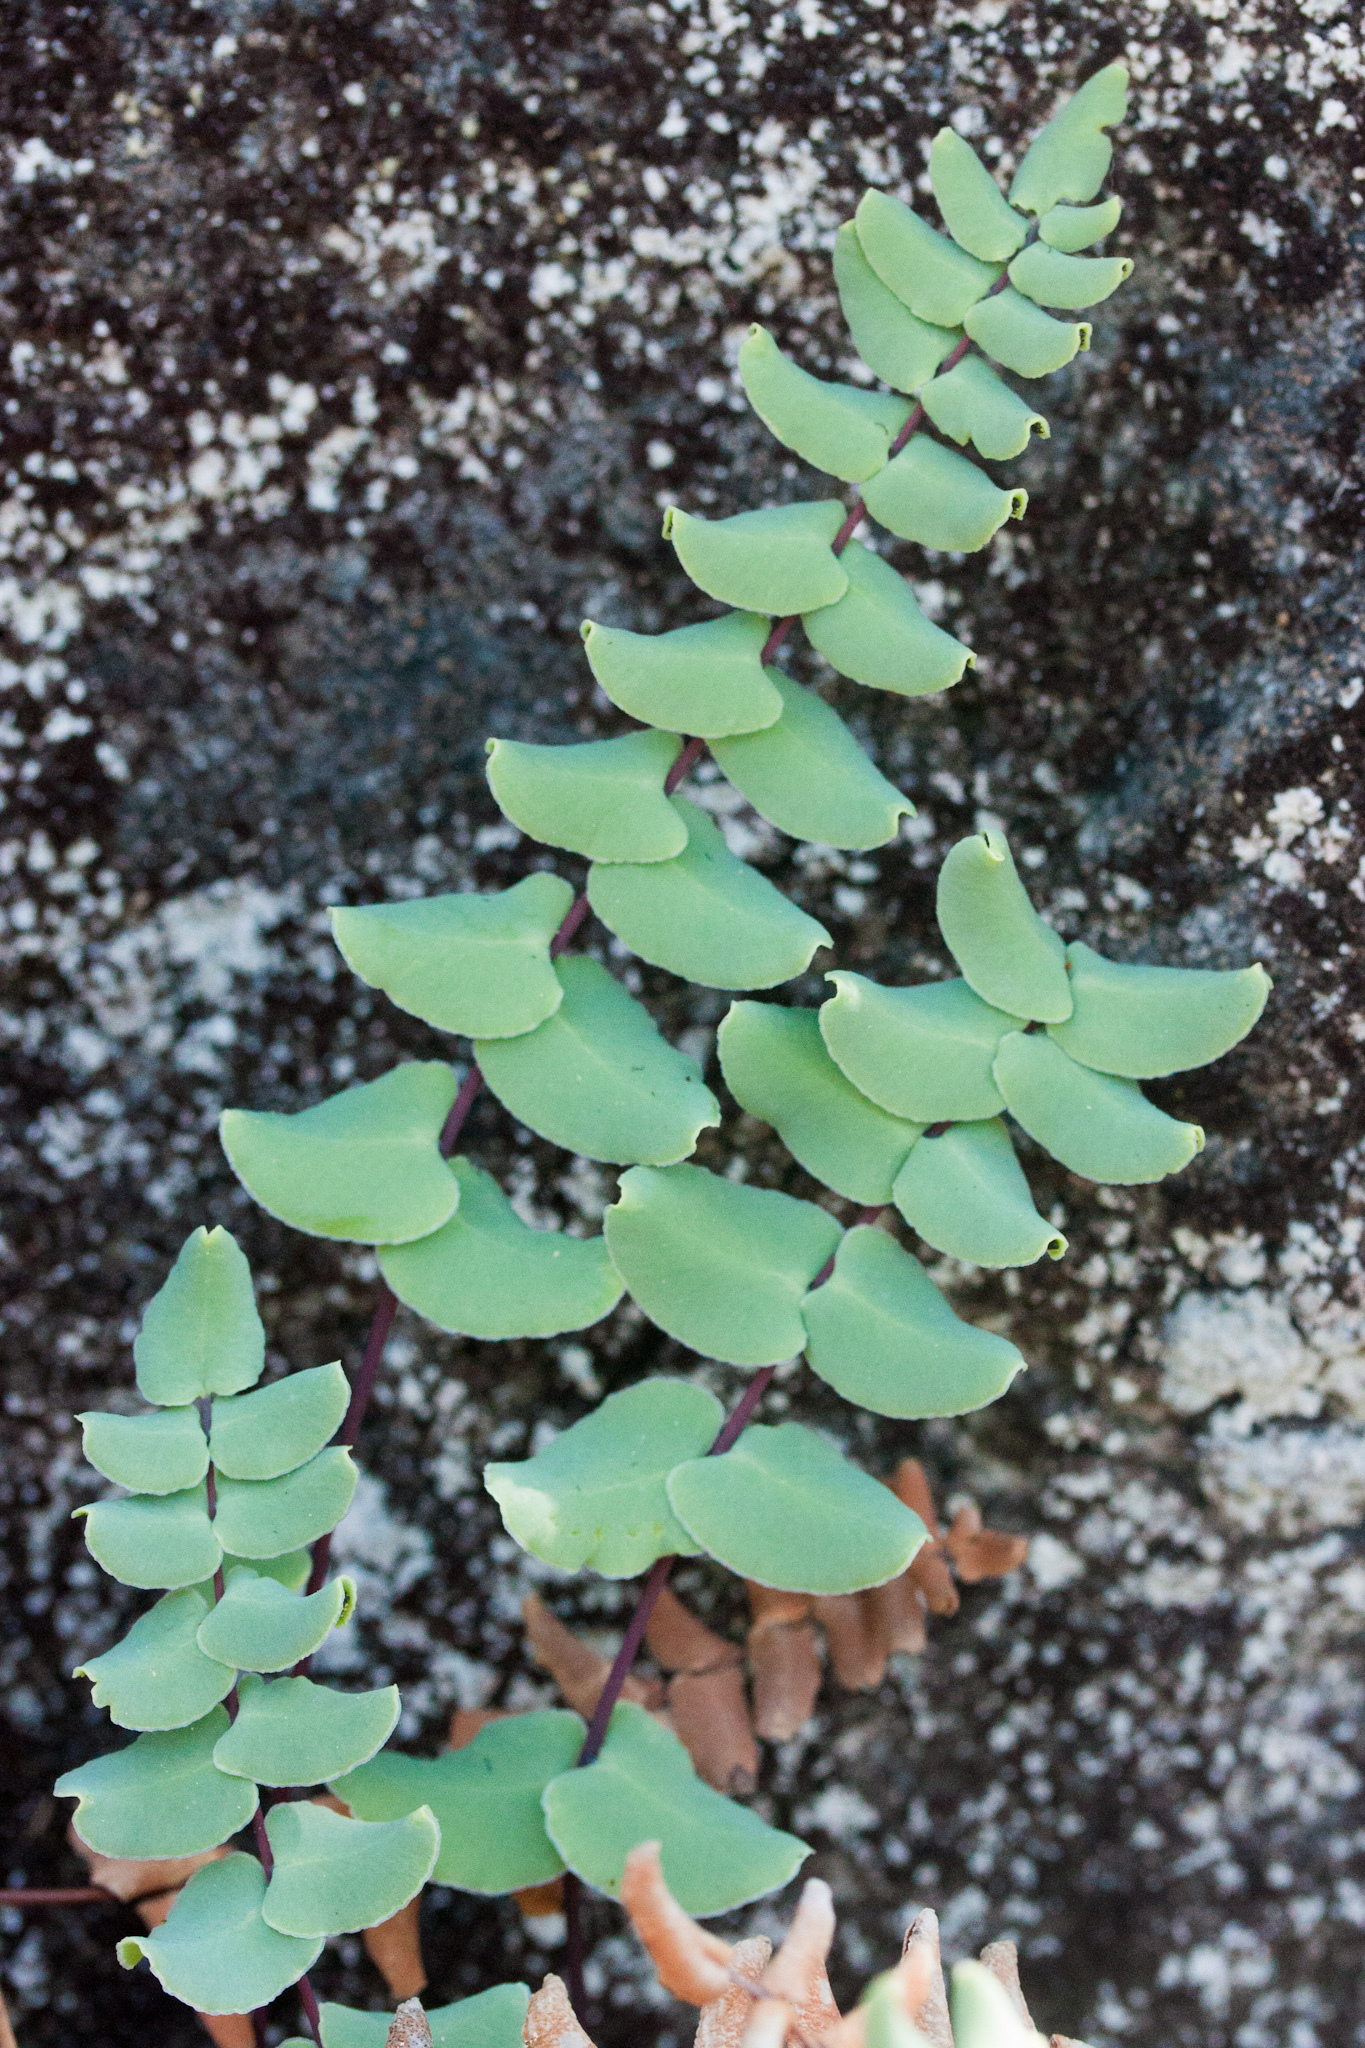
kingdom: Plantae
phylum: Tracheophyta
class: Polypodiopsida
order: Polypodiales
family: Pteridaceae
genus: Pellaea
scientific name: Pellaea bridgesii
